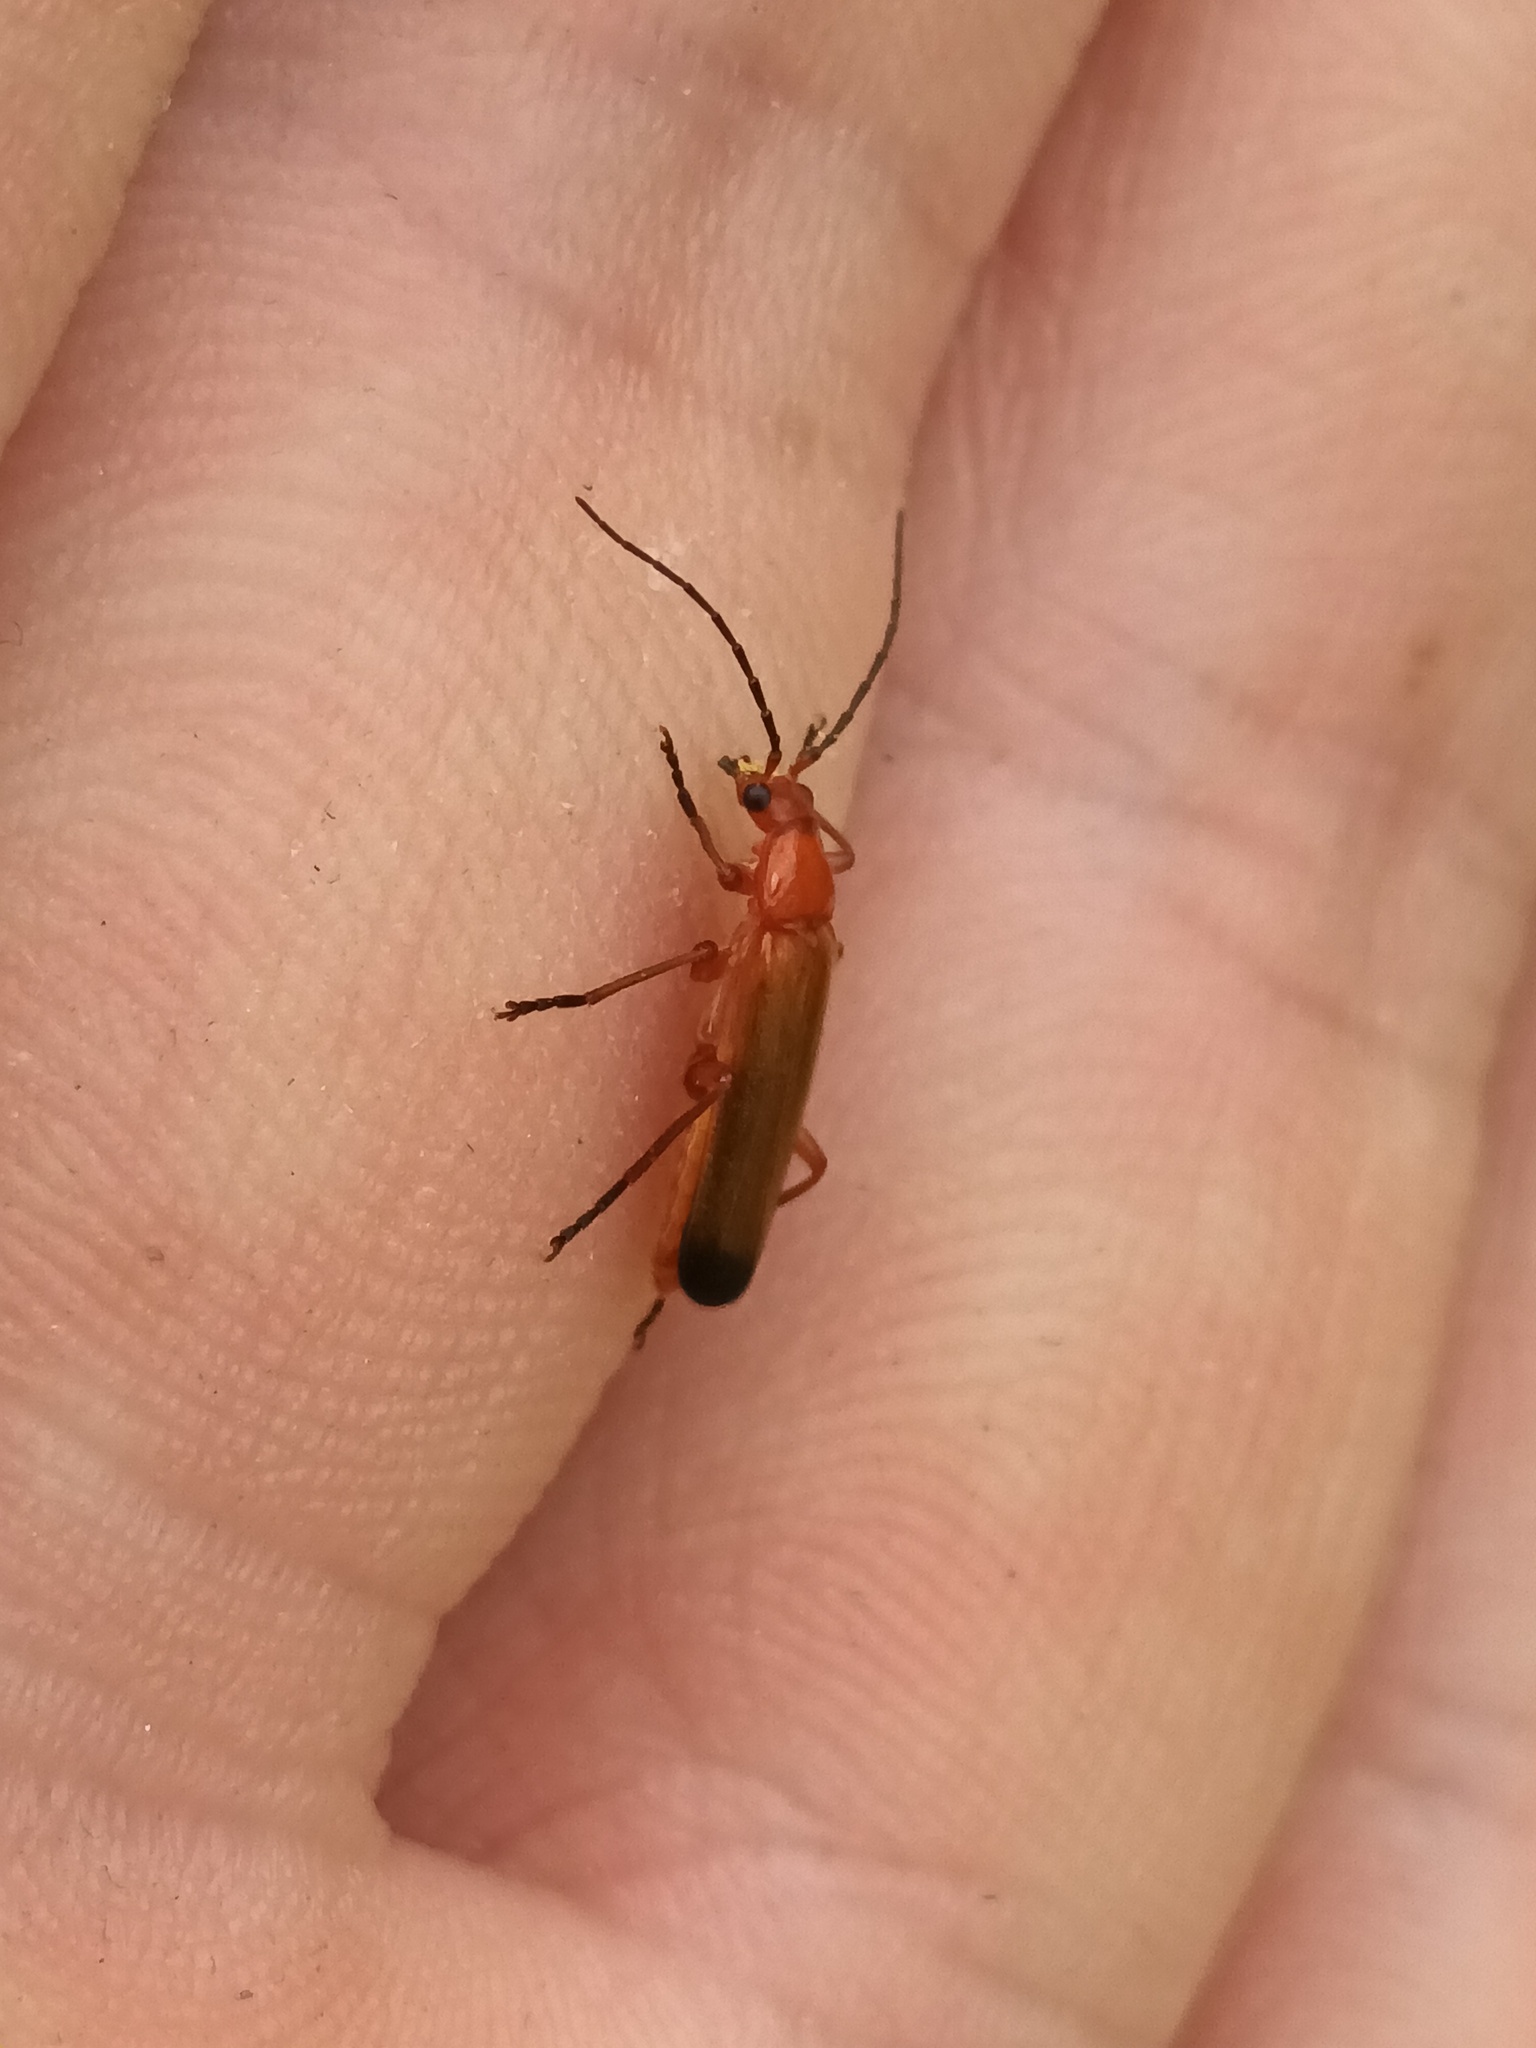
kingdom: Animalia
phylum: Arthropoda
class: Insecta
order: Coleoptera
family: Cantharidae
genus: Rhagonycha
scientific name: Rhagonycha fulva
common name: Common red soldier beetle
